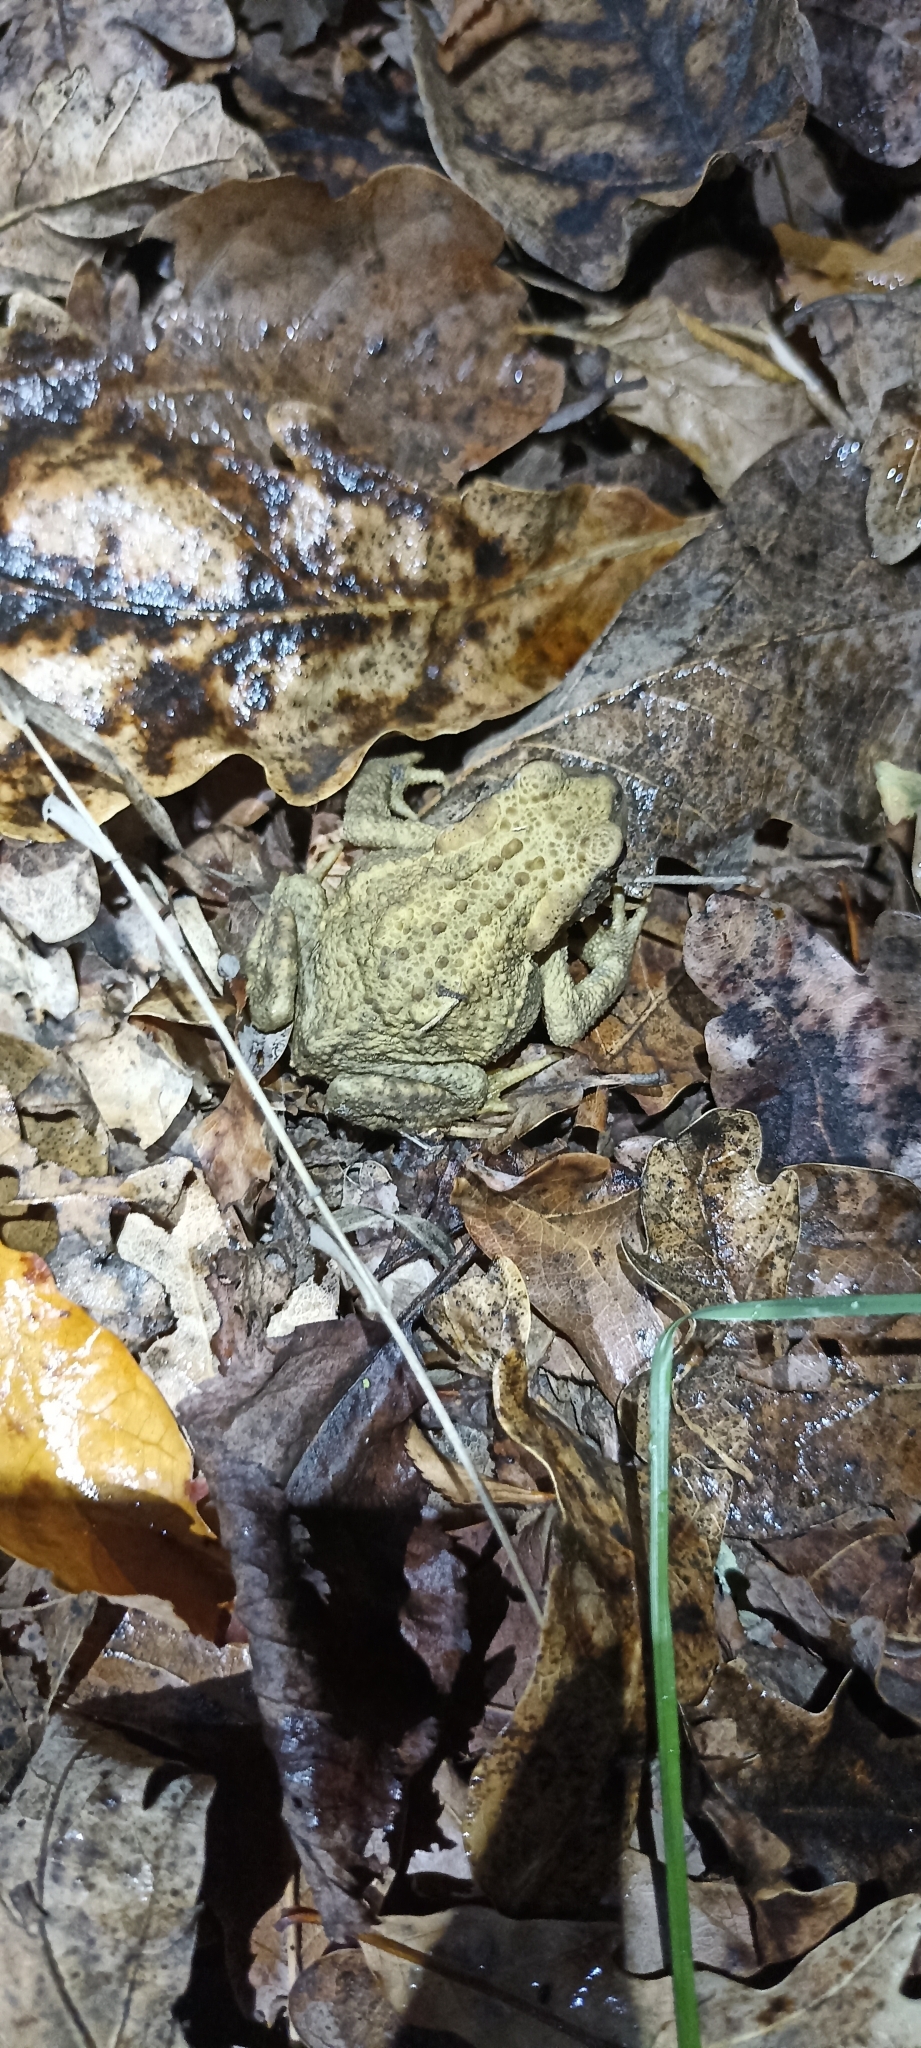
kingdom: Animalia
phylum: Chordata
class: Amphibia
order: Anura
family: Bufonidae
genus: Bufo
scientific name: Bufo spinosus
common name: Western common toad
